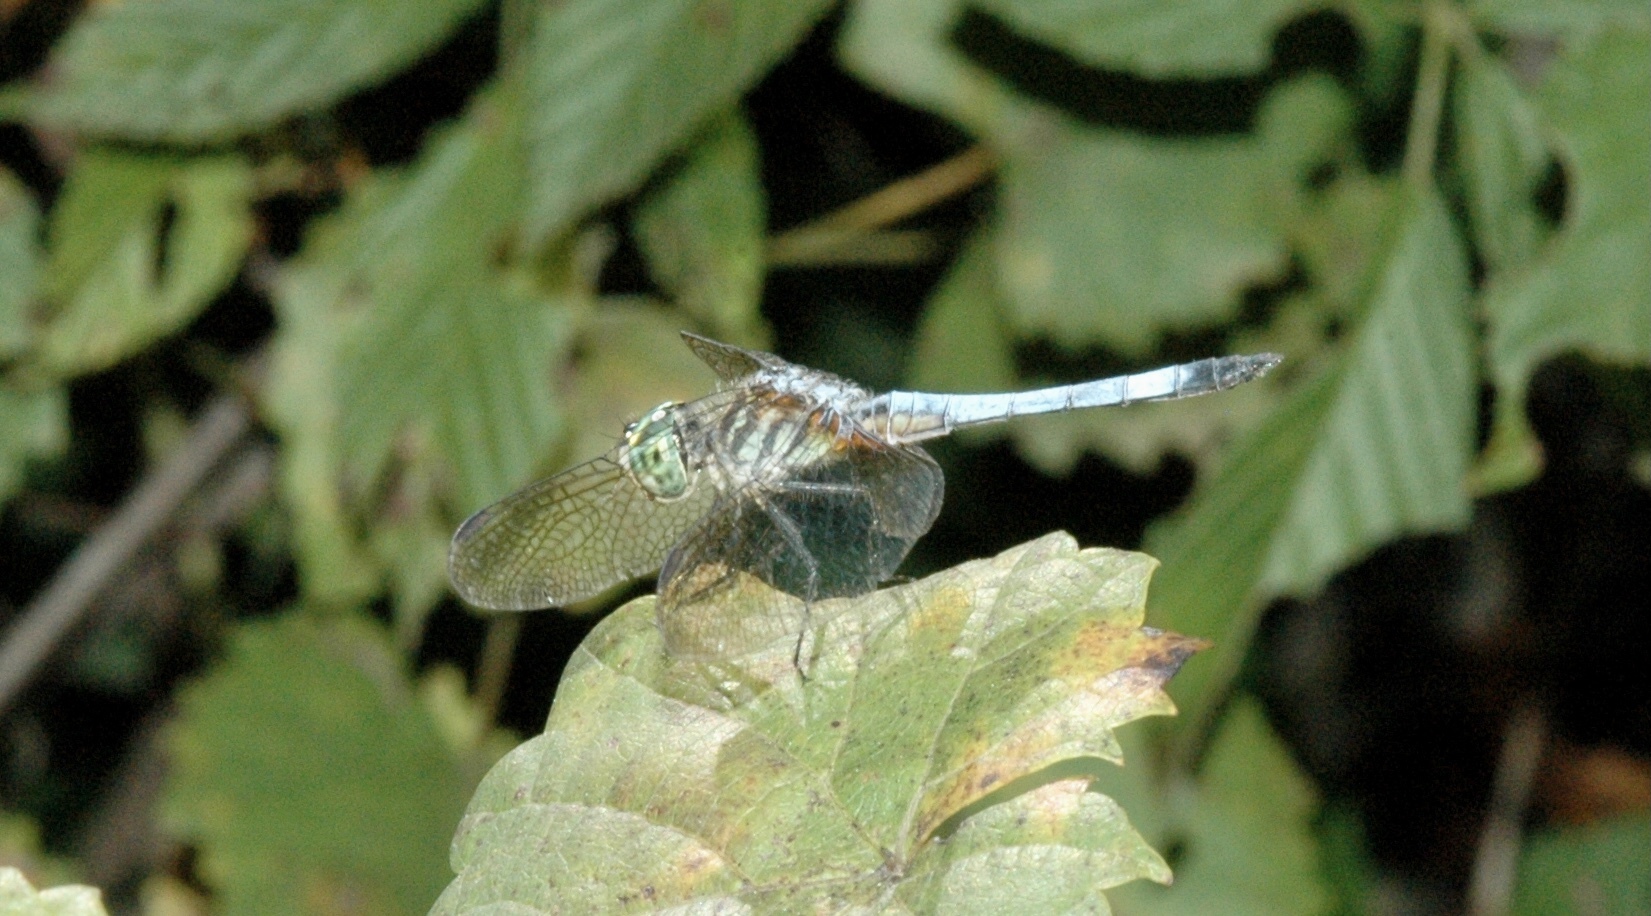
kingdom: Animalia
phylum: Arthropoda
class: Insecta
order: Odonata
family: Libellulidae
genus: Pachydiplax
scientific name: Pachydiplax longipennis
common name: Blue dasher
